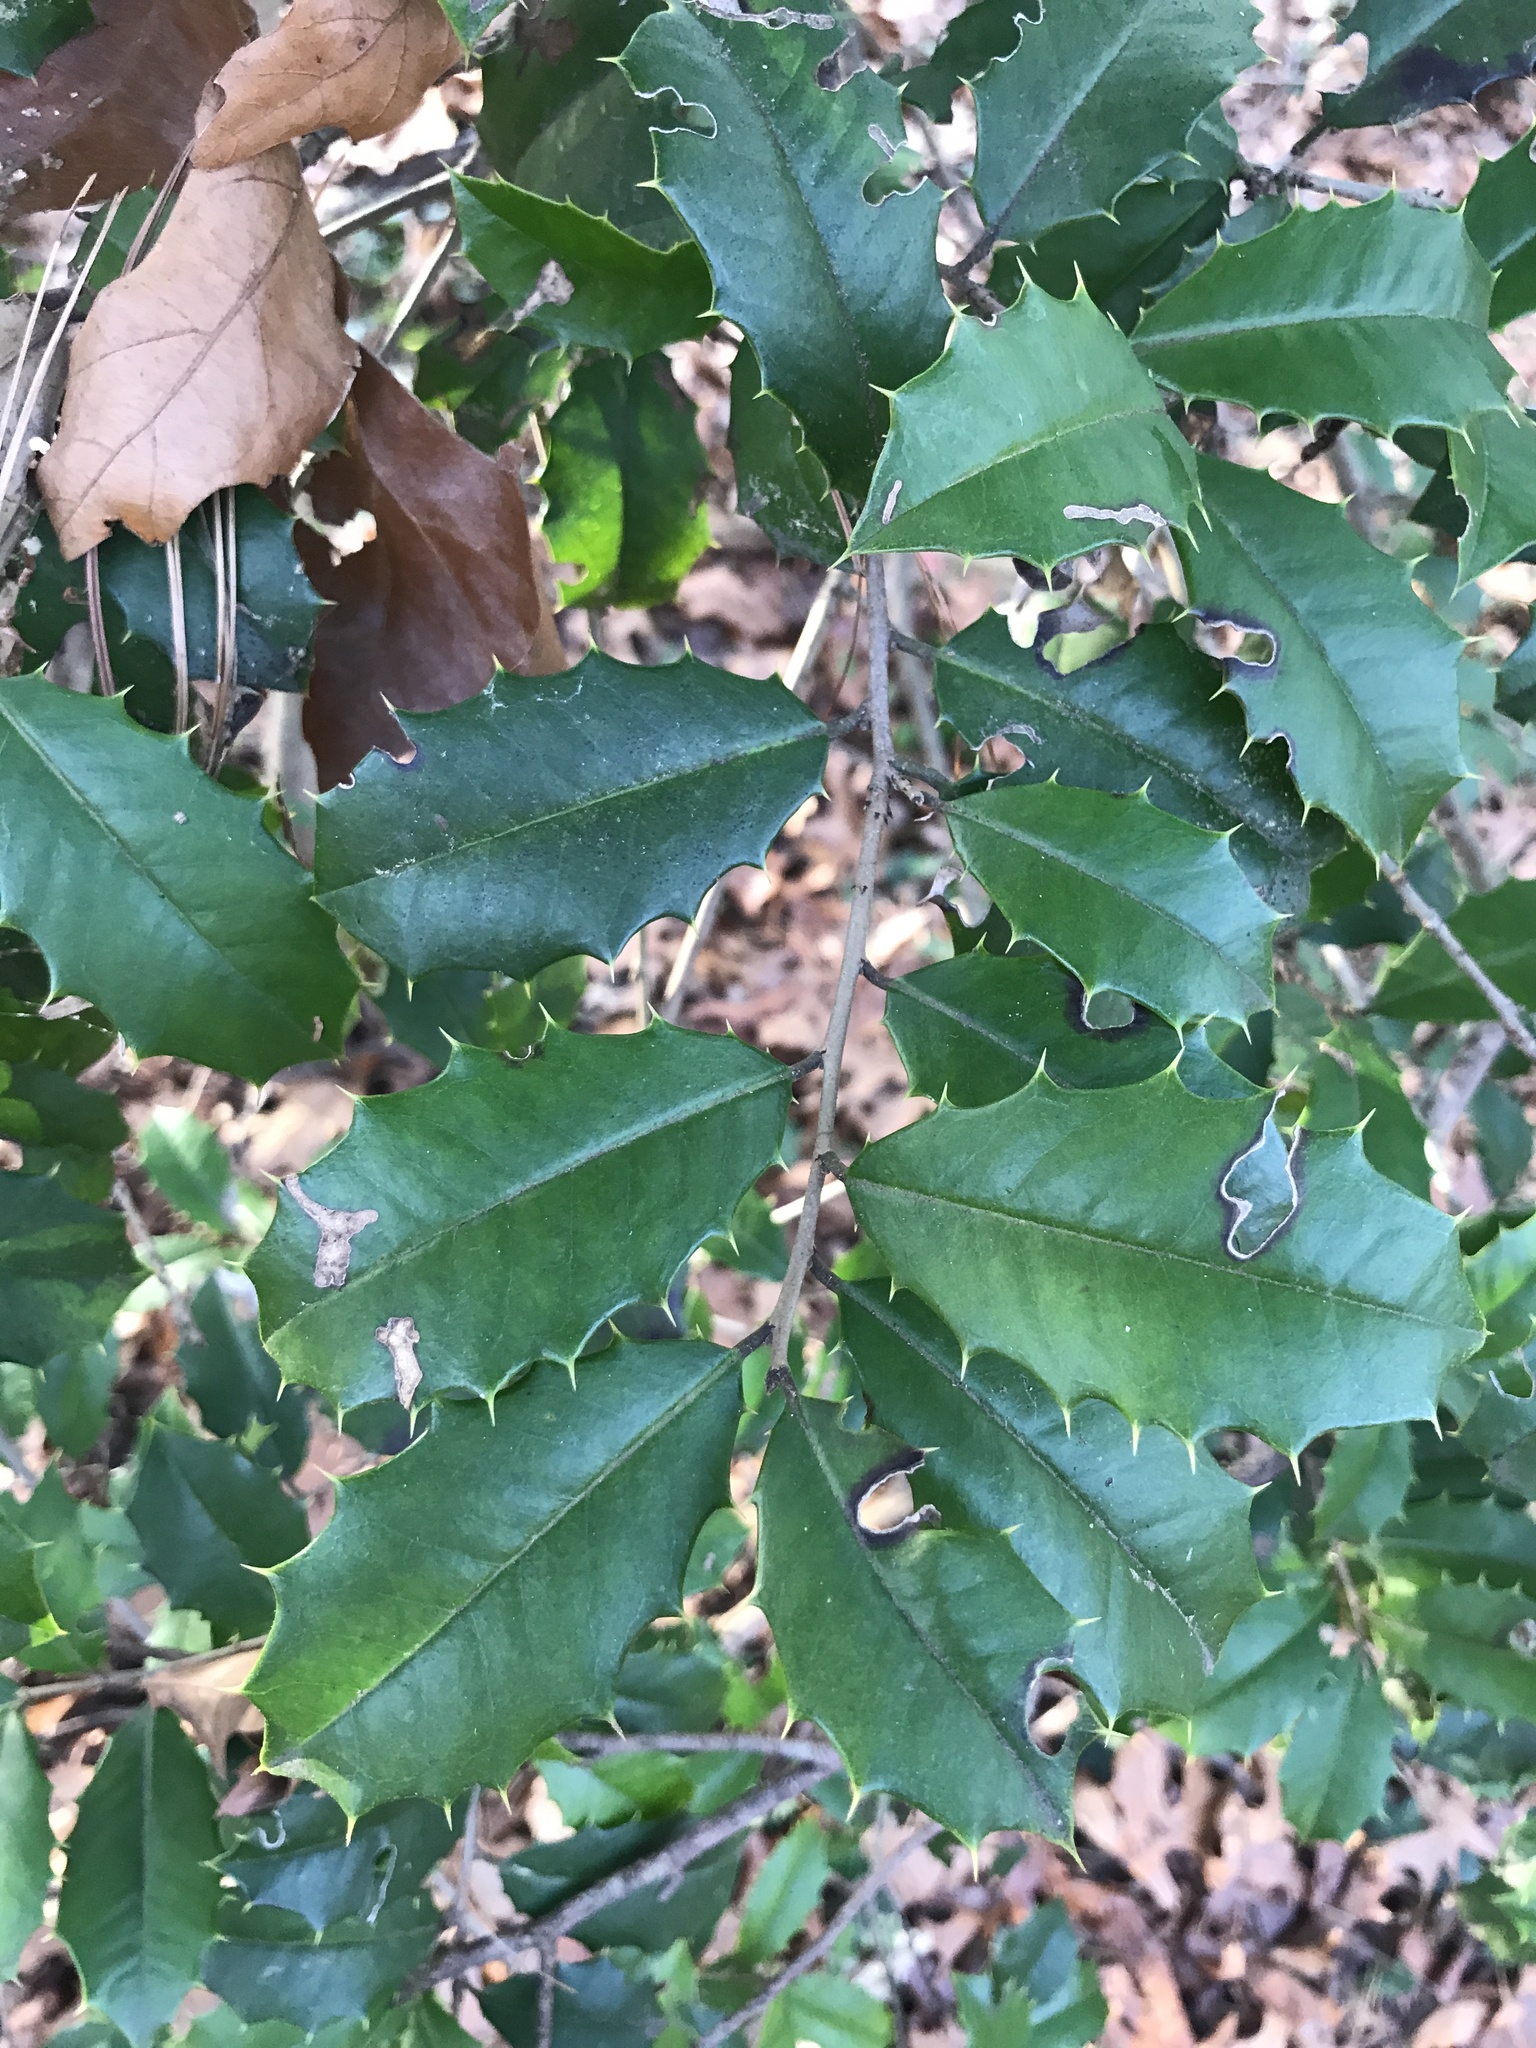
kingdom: Plantae
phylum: Tracheophyta
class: Magnoliopsida
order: Aquifoliales
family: Aquifoliaceae
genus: Ilex
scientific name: Ilex opaca
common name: American holly
